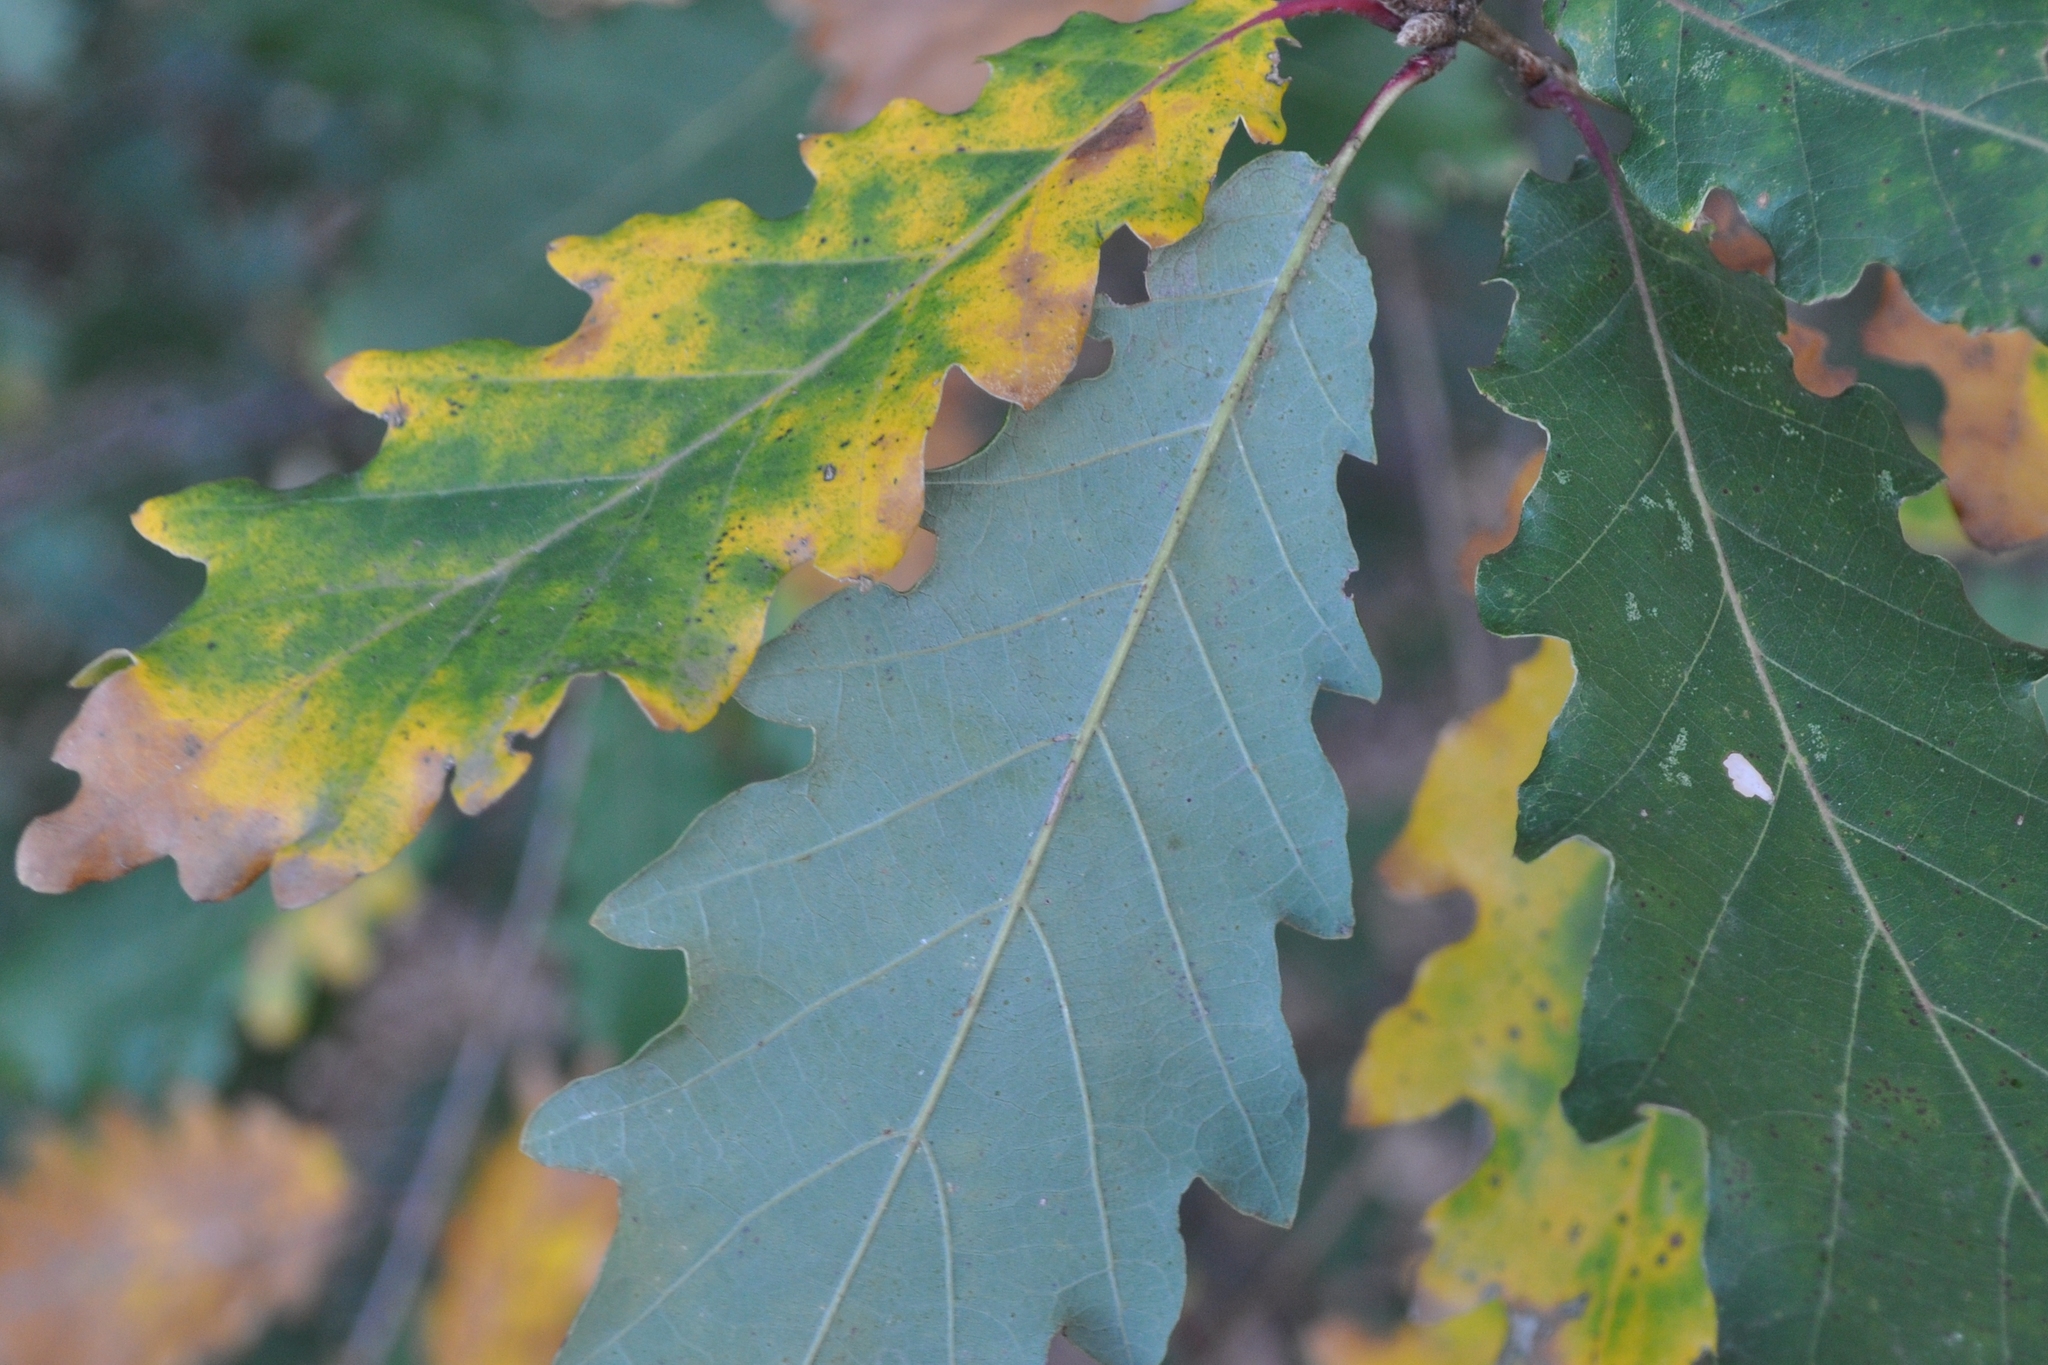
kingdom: Plantae
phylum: Tracheophyta
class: Magnoliopsida
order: Fagales
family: Fagaceae
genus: Quercus
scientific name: Quercus canariensis
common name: Algerian oak
